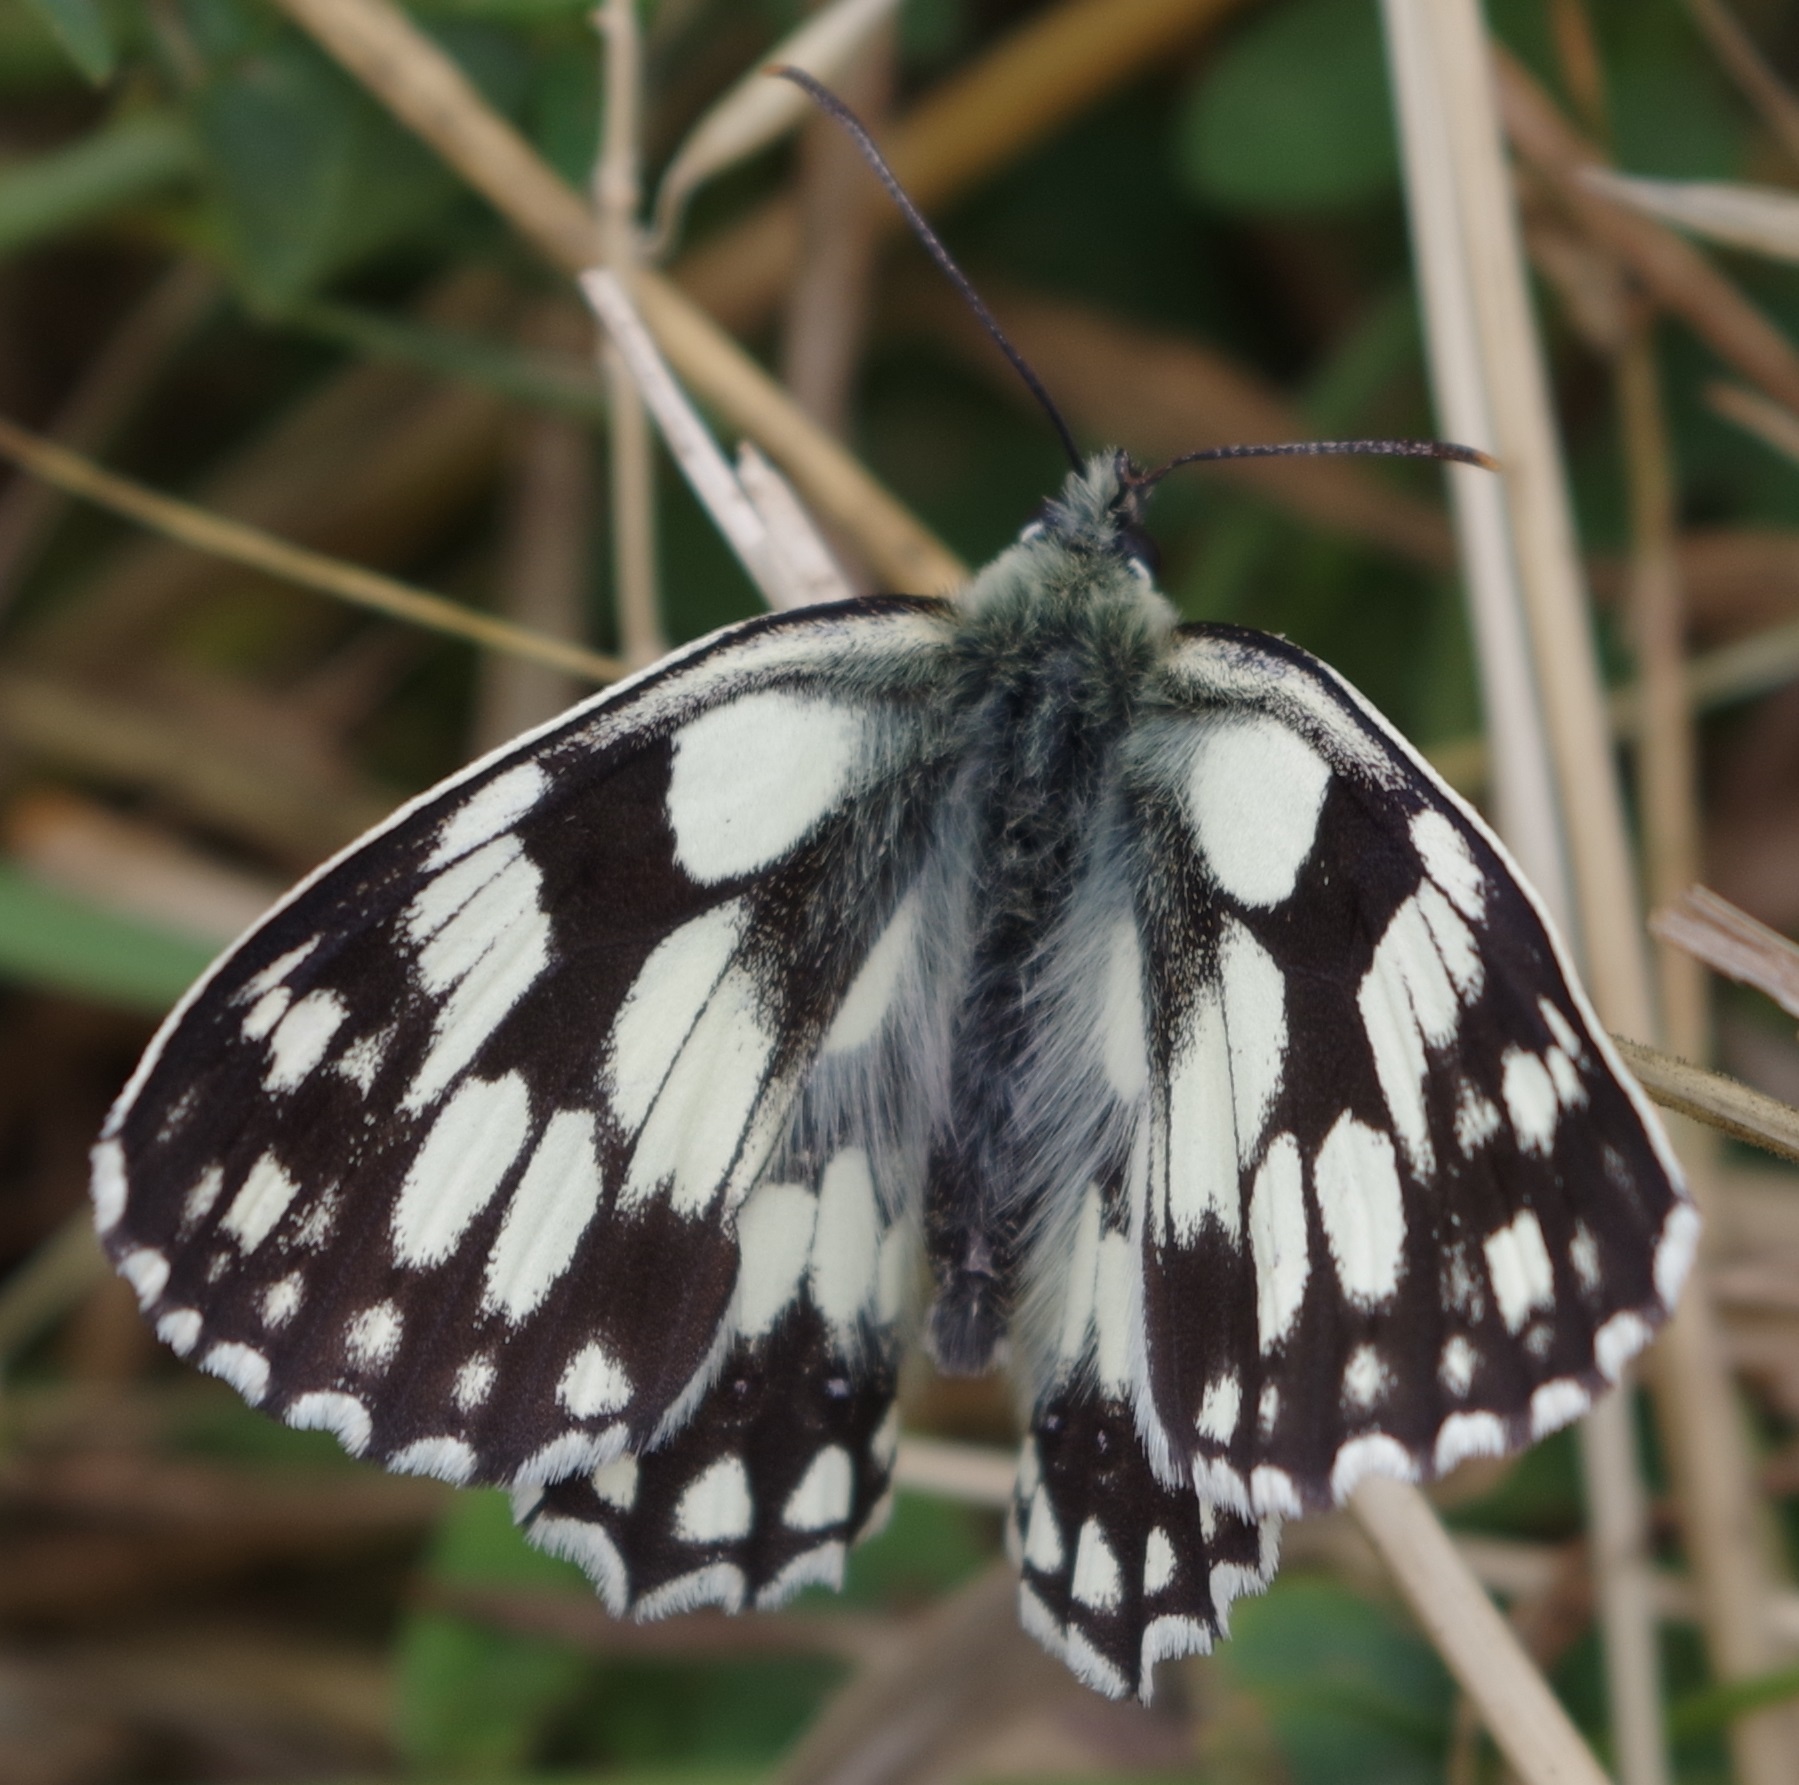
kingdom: Animalia
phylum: Arthropoda
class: Insecta
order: Lepidoptera
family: Nymphalidae
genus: Melanargia
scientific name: Melanargia galathea
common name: Marbled white
